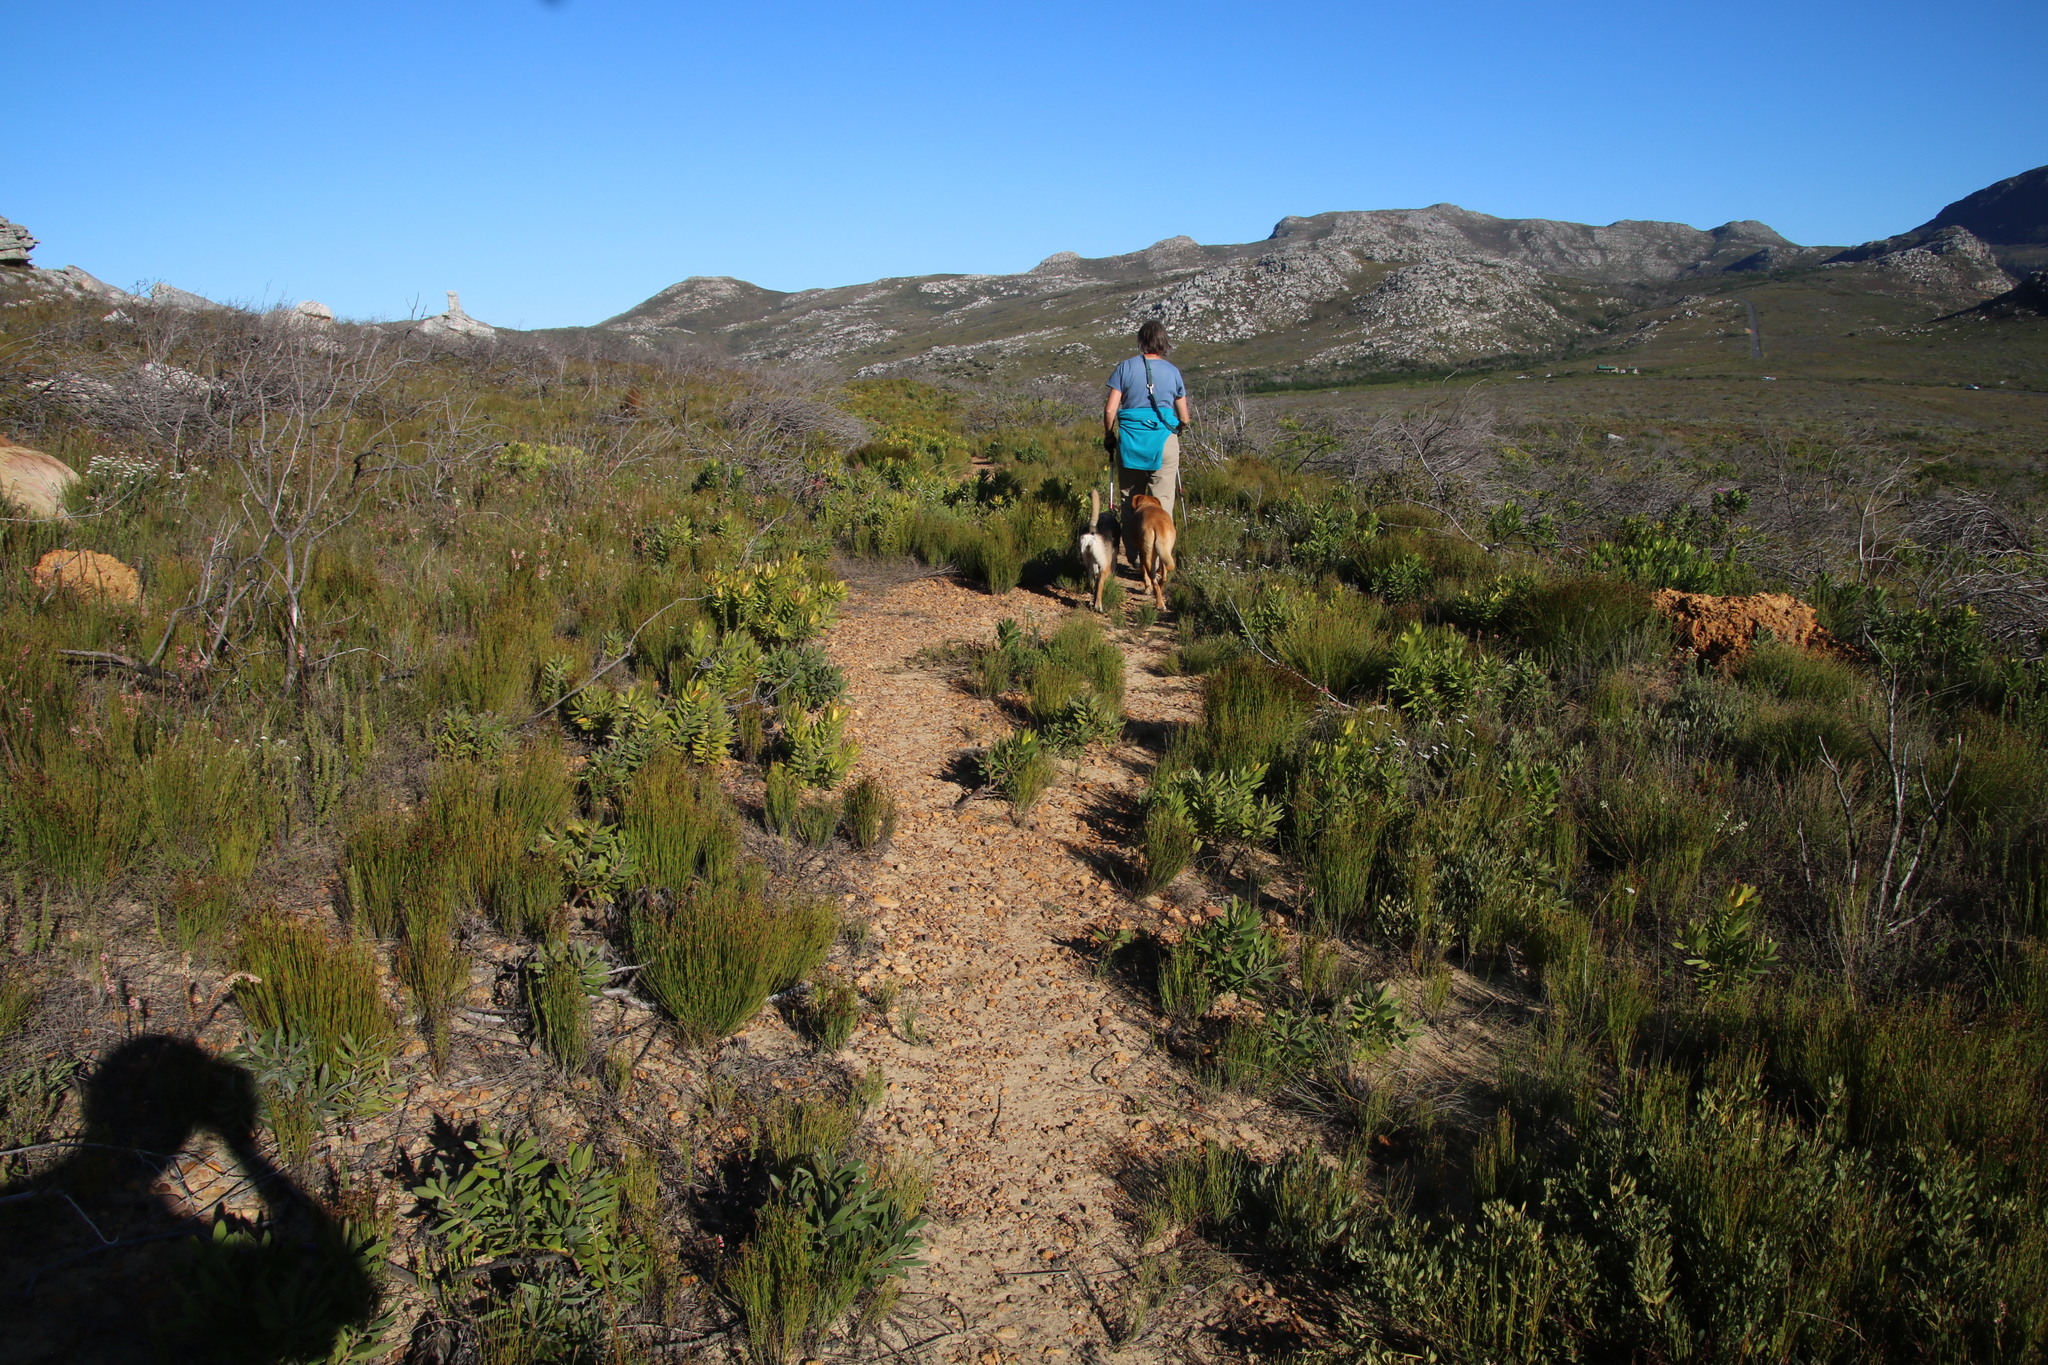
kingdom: Plantae
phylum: Tracheophyta
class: Magnoliopsida
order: Proteales
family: Proteaceae
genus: Leucadendron
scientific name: Leucadendron laureolum
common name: Golden sunshinebush
